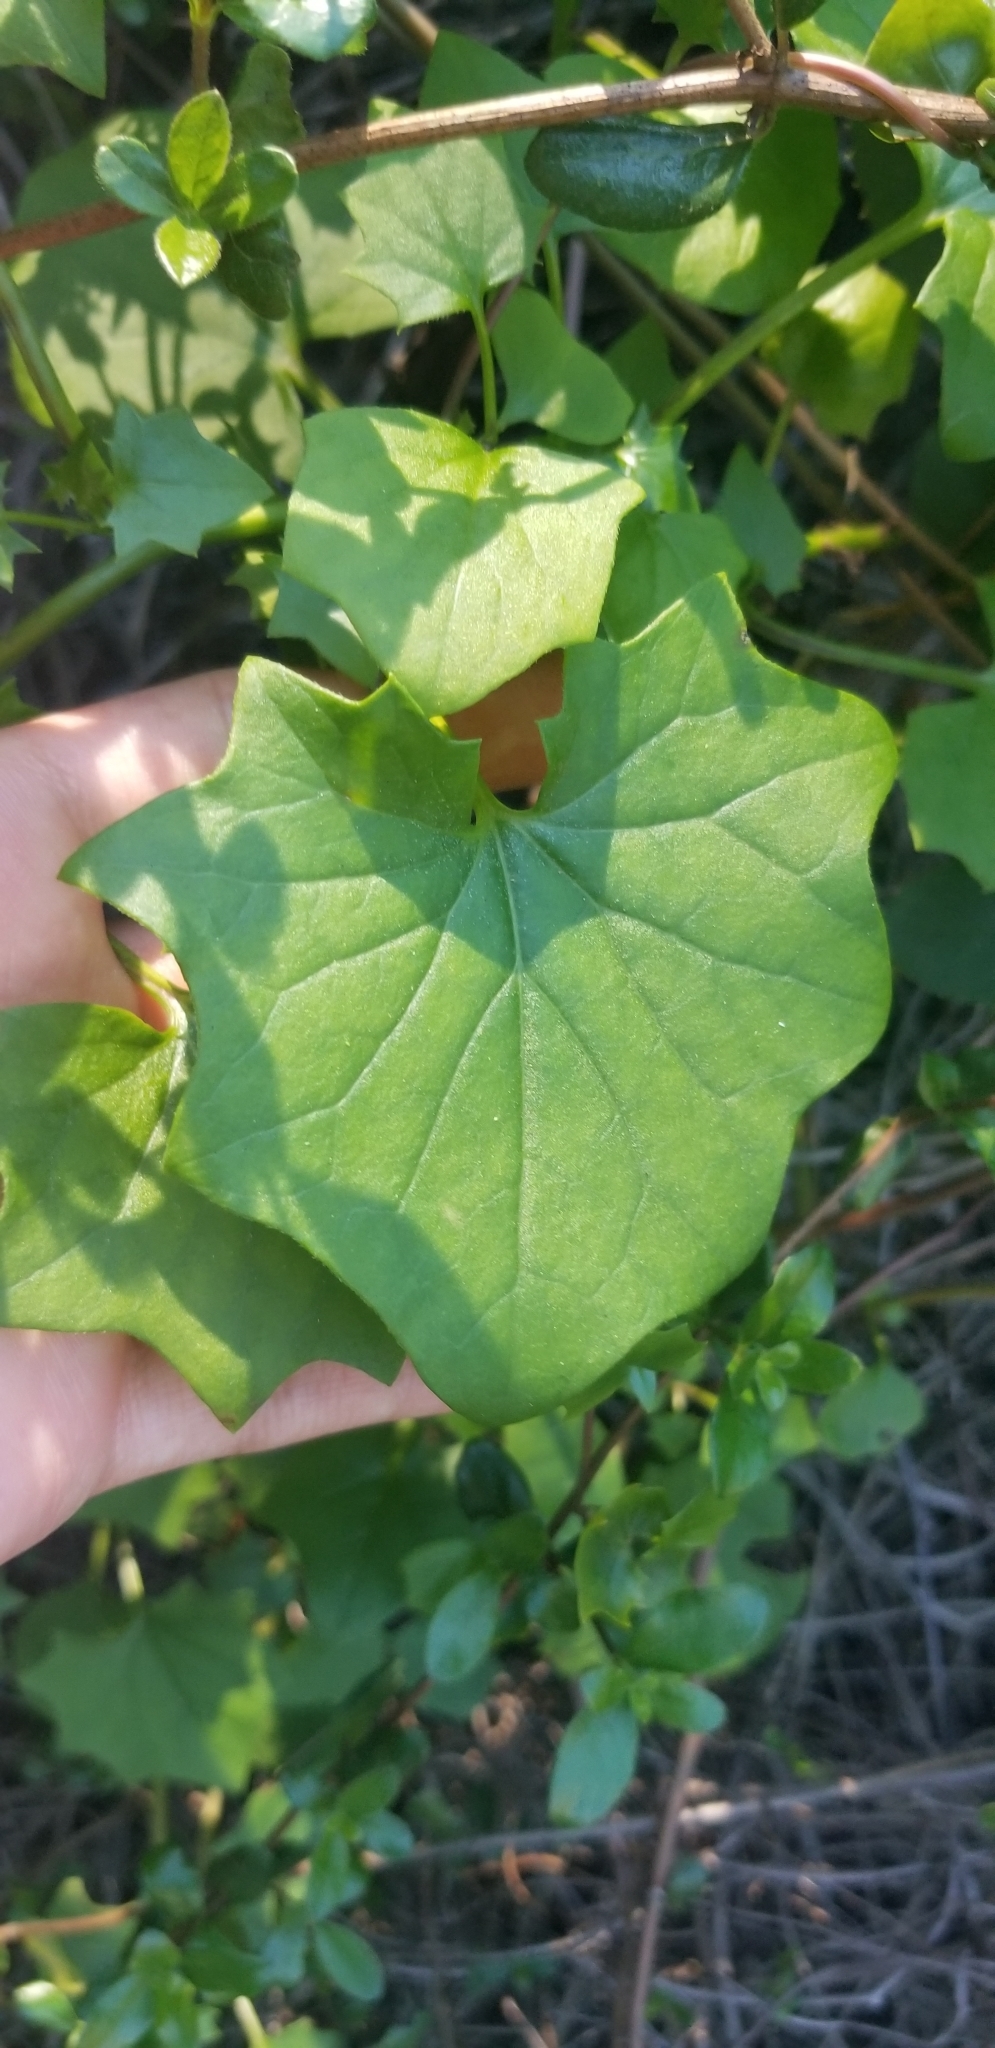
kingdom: Plantae
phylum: Tracheophyta
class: Magnoliopsida
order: Asterales
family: Asteraceae
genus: Delairea
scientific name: Delairea odorata
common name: Cape-ivy
